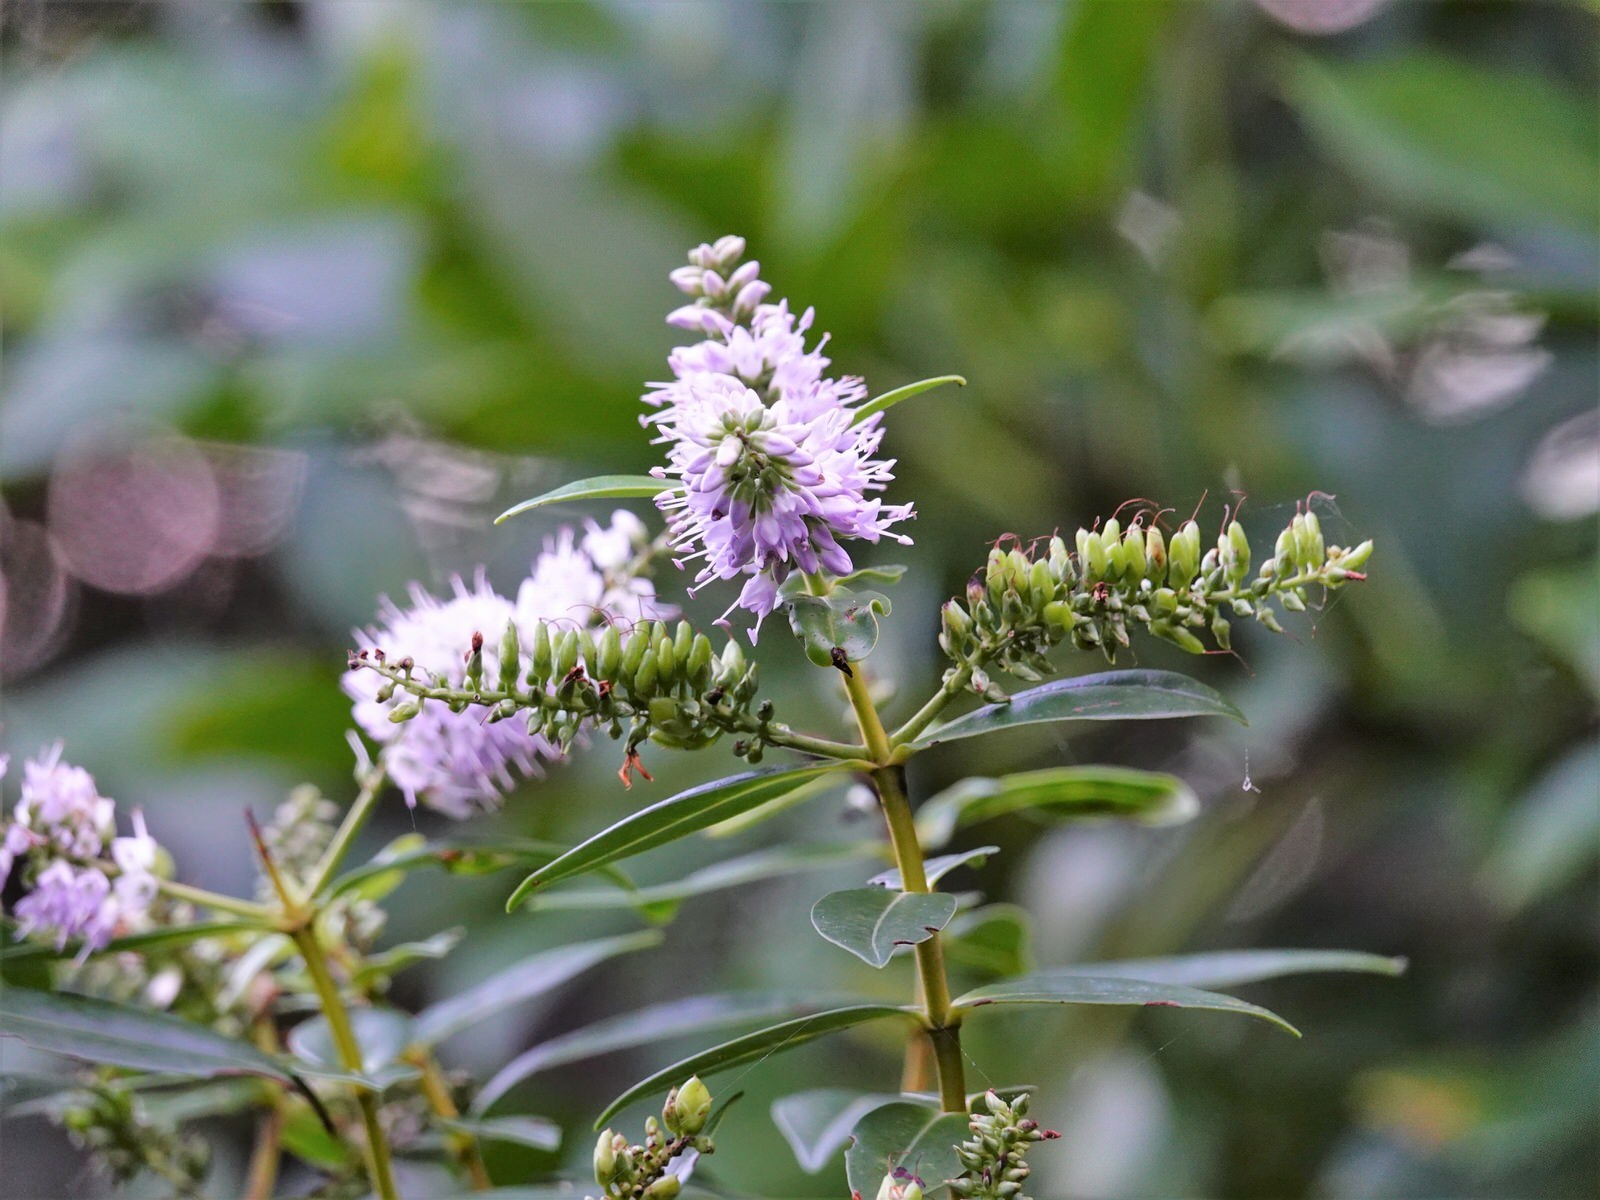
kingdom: Plantae
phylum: Tracheophyta
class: Magnoliopsida
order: Lamiales
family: Plantaginaceae
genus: Veronica
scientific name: Veronica macrocarpa
